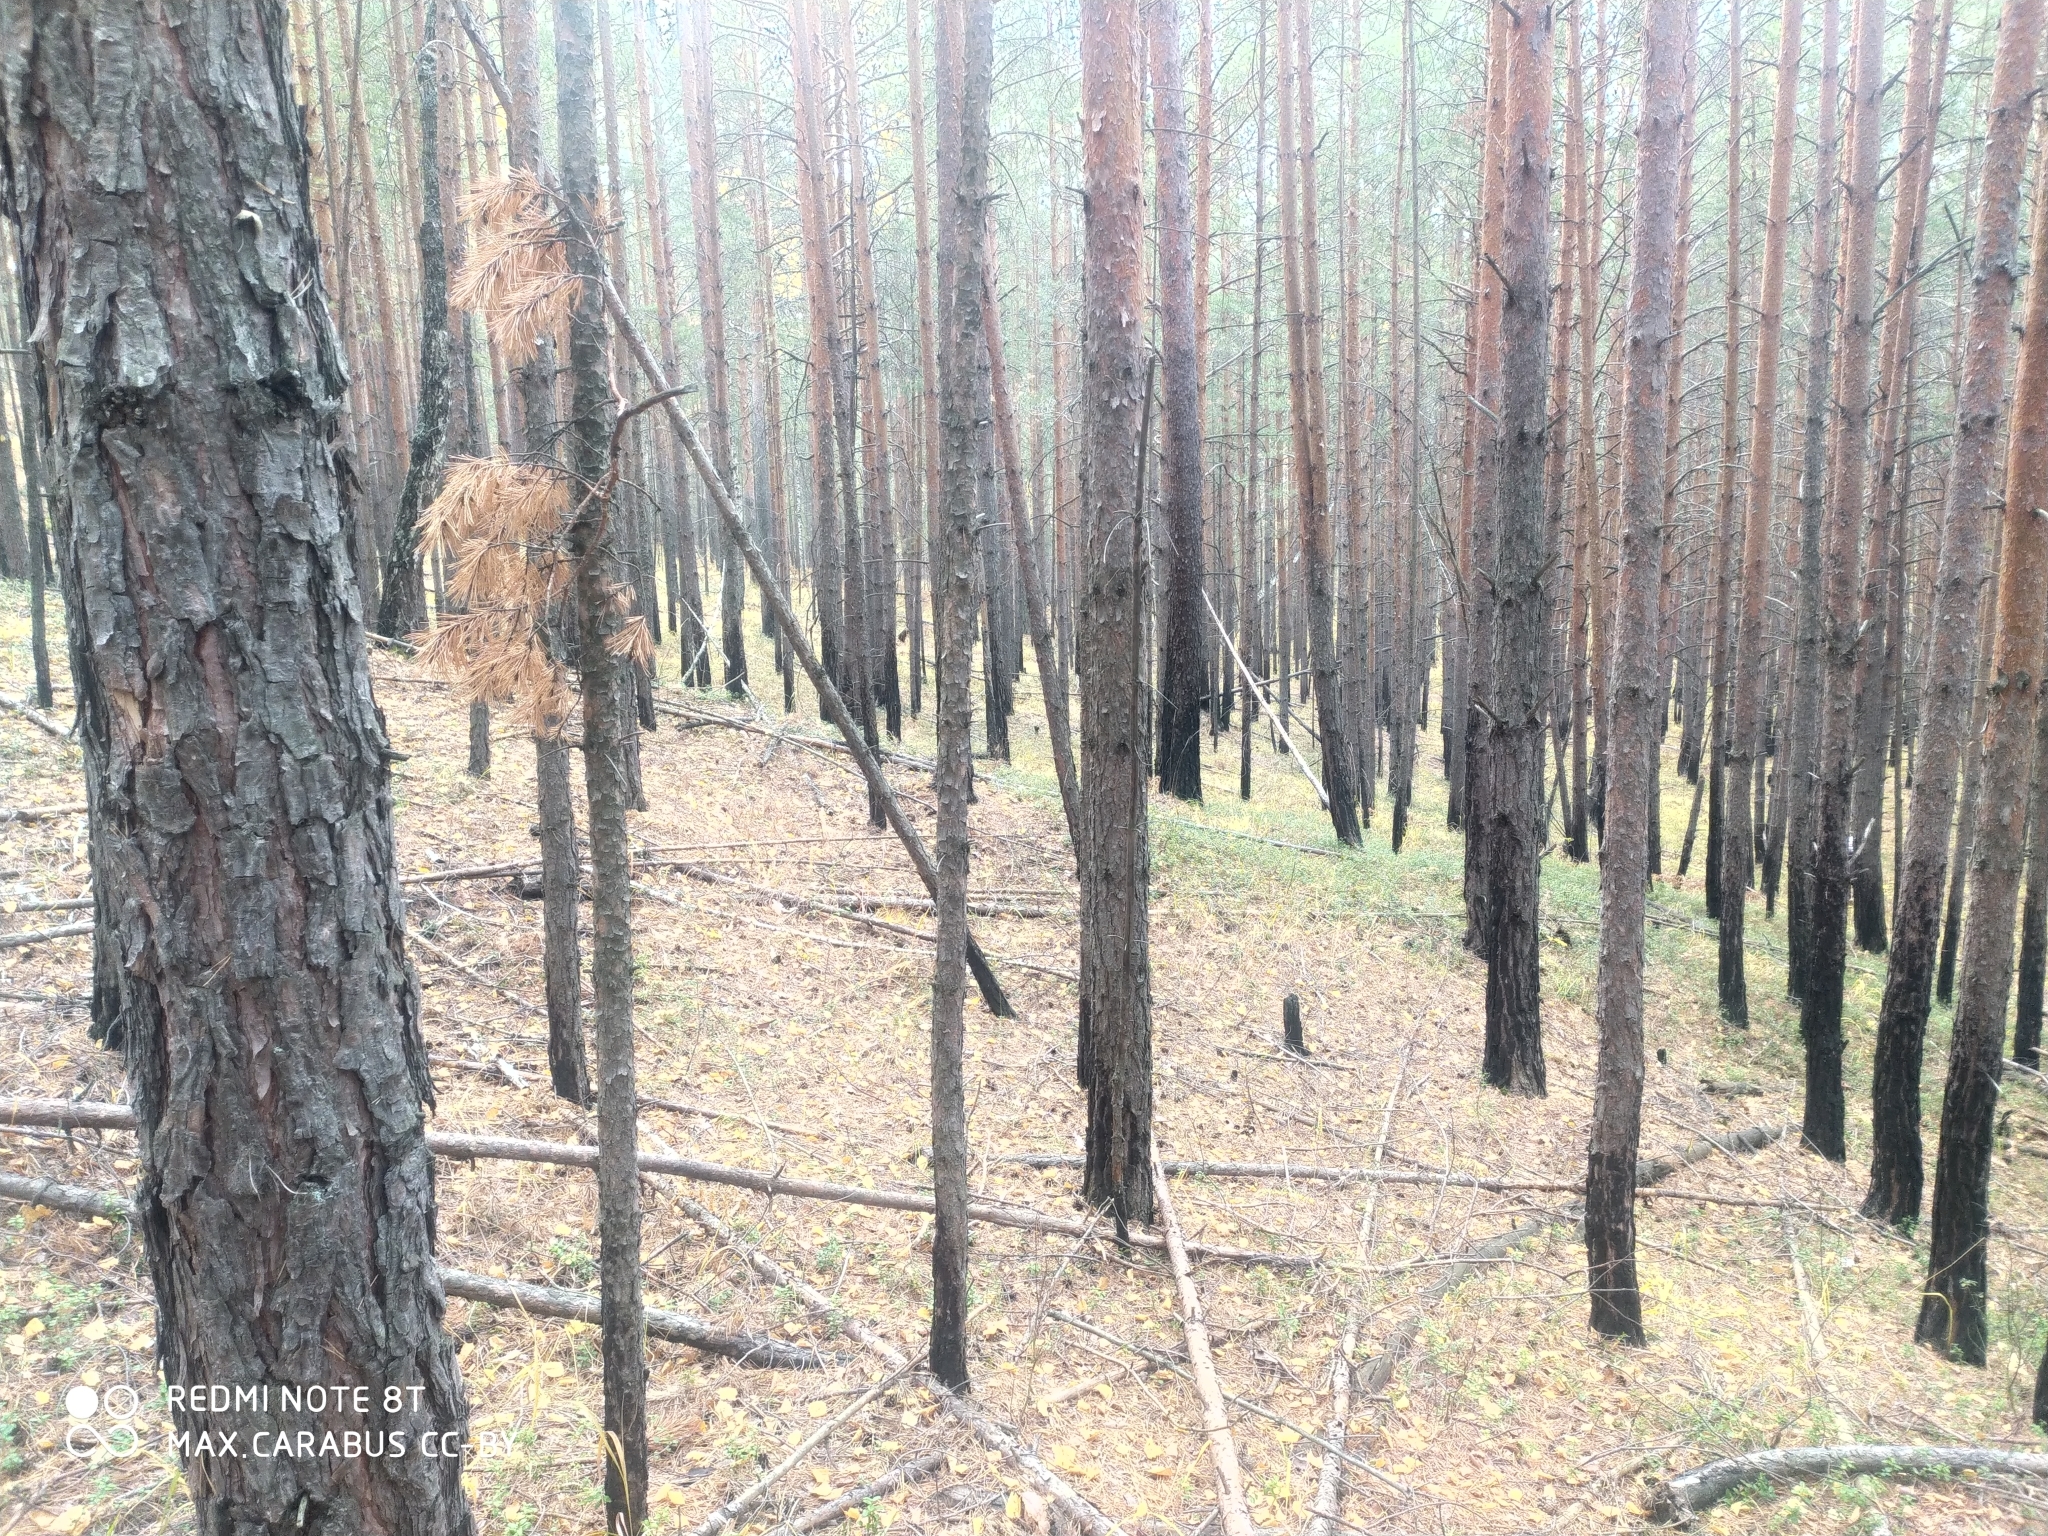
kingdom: Plantae
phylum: Tracheophyta
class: Pinopsida
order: Pinales
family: Pinaceae
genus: Pinus
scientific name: Pinus sylvestris
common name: Scots pine
